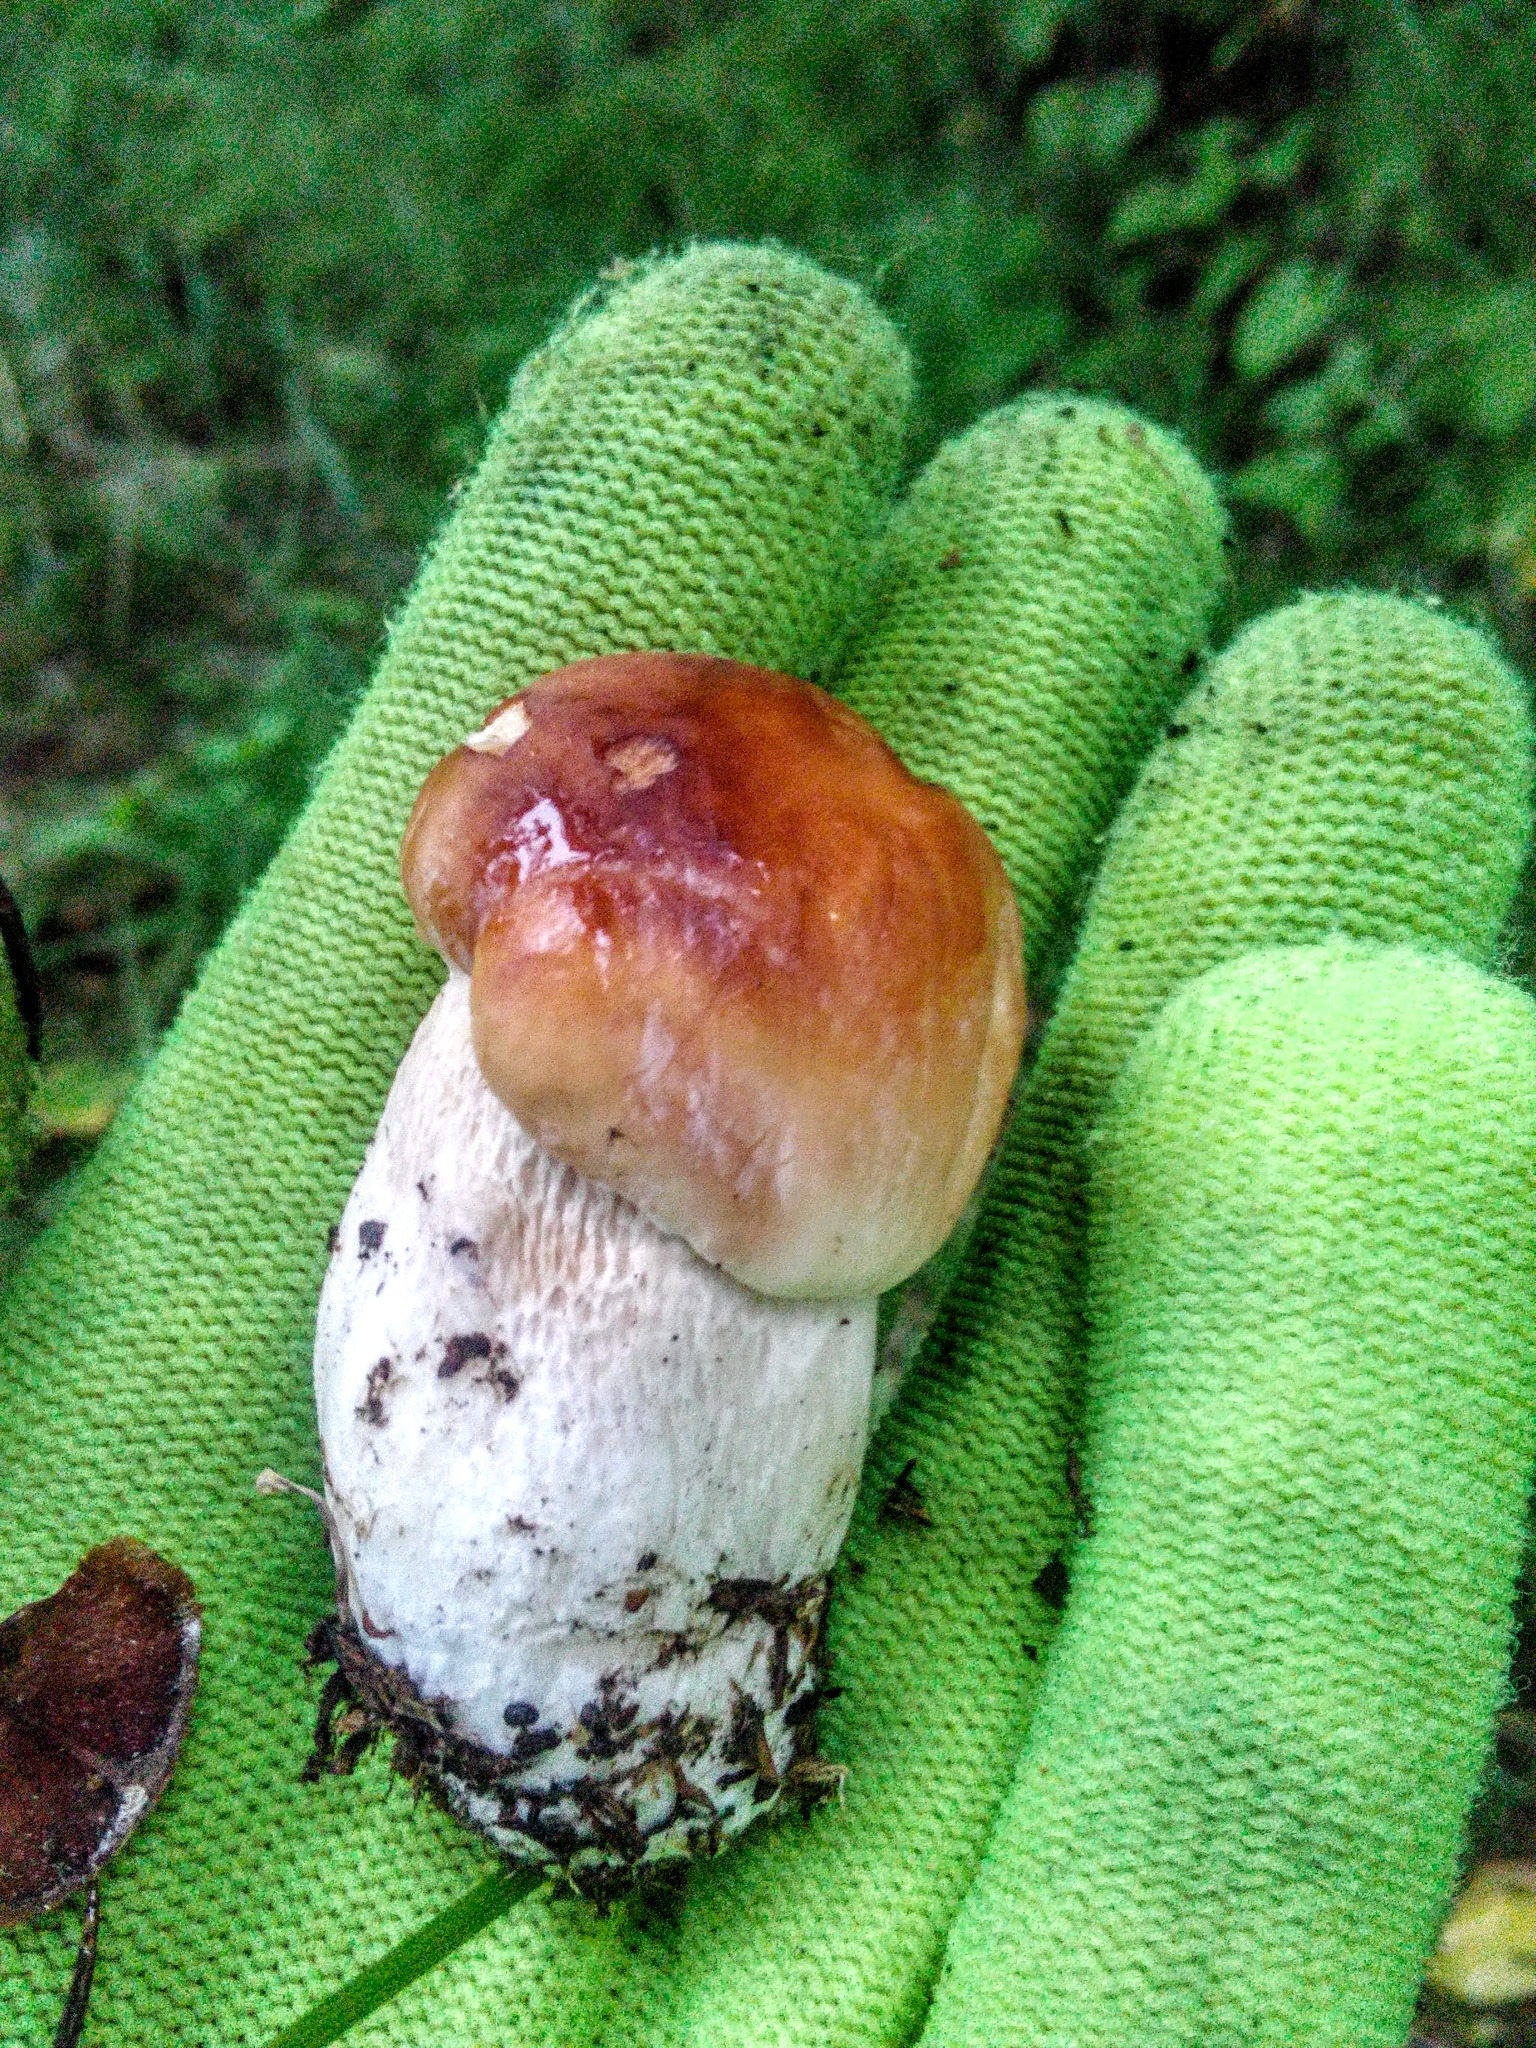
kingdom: Fungi
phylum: Basidiomycota
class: Agaricomycetes
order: Boletales
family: Boletaceae
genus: Boletus
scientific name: Boletus edulis
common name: Cep
